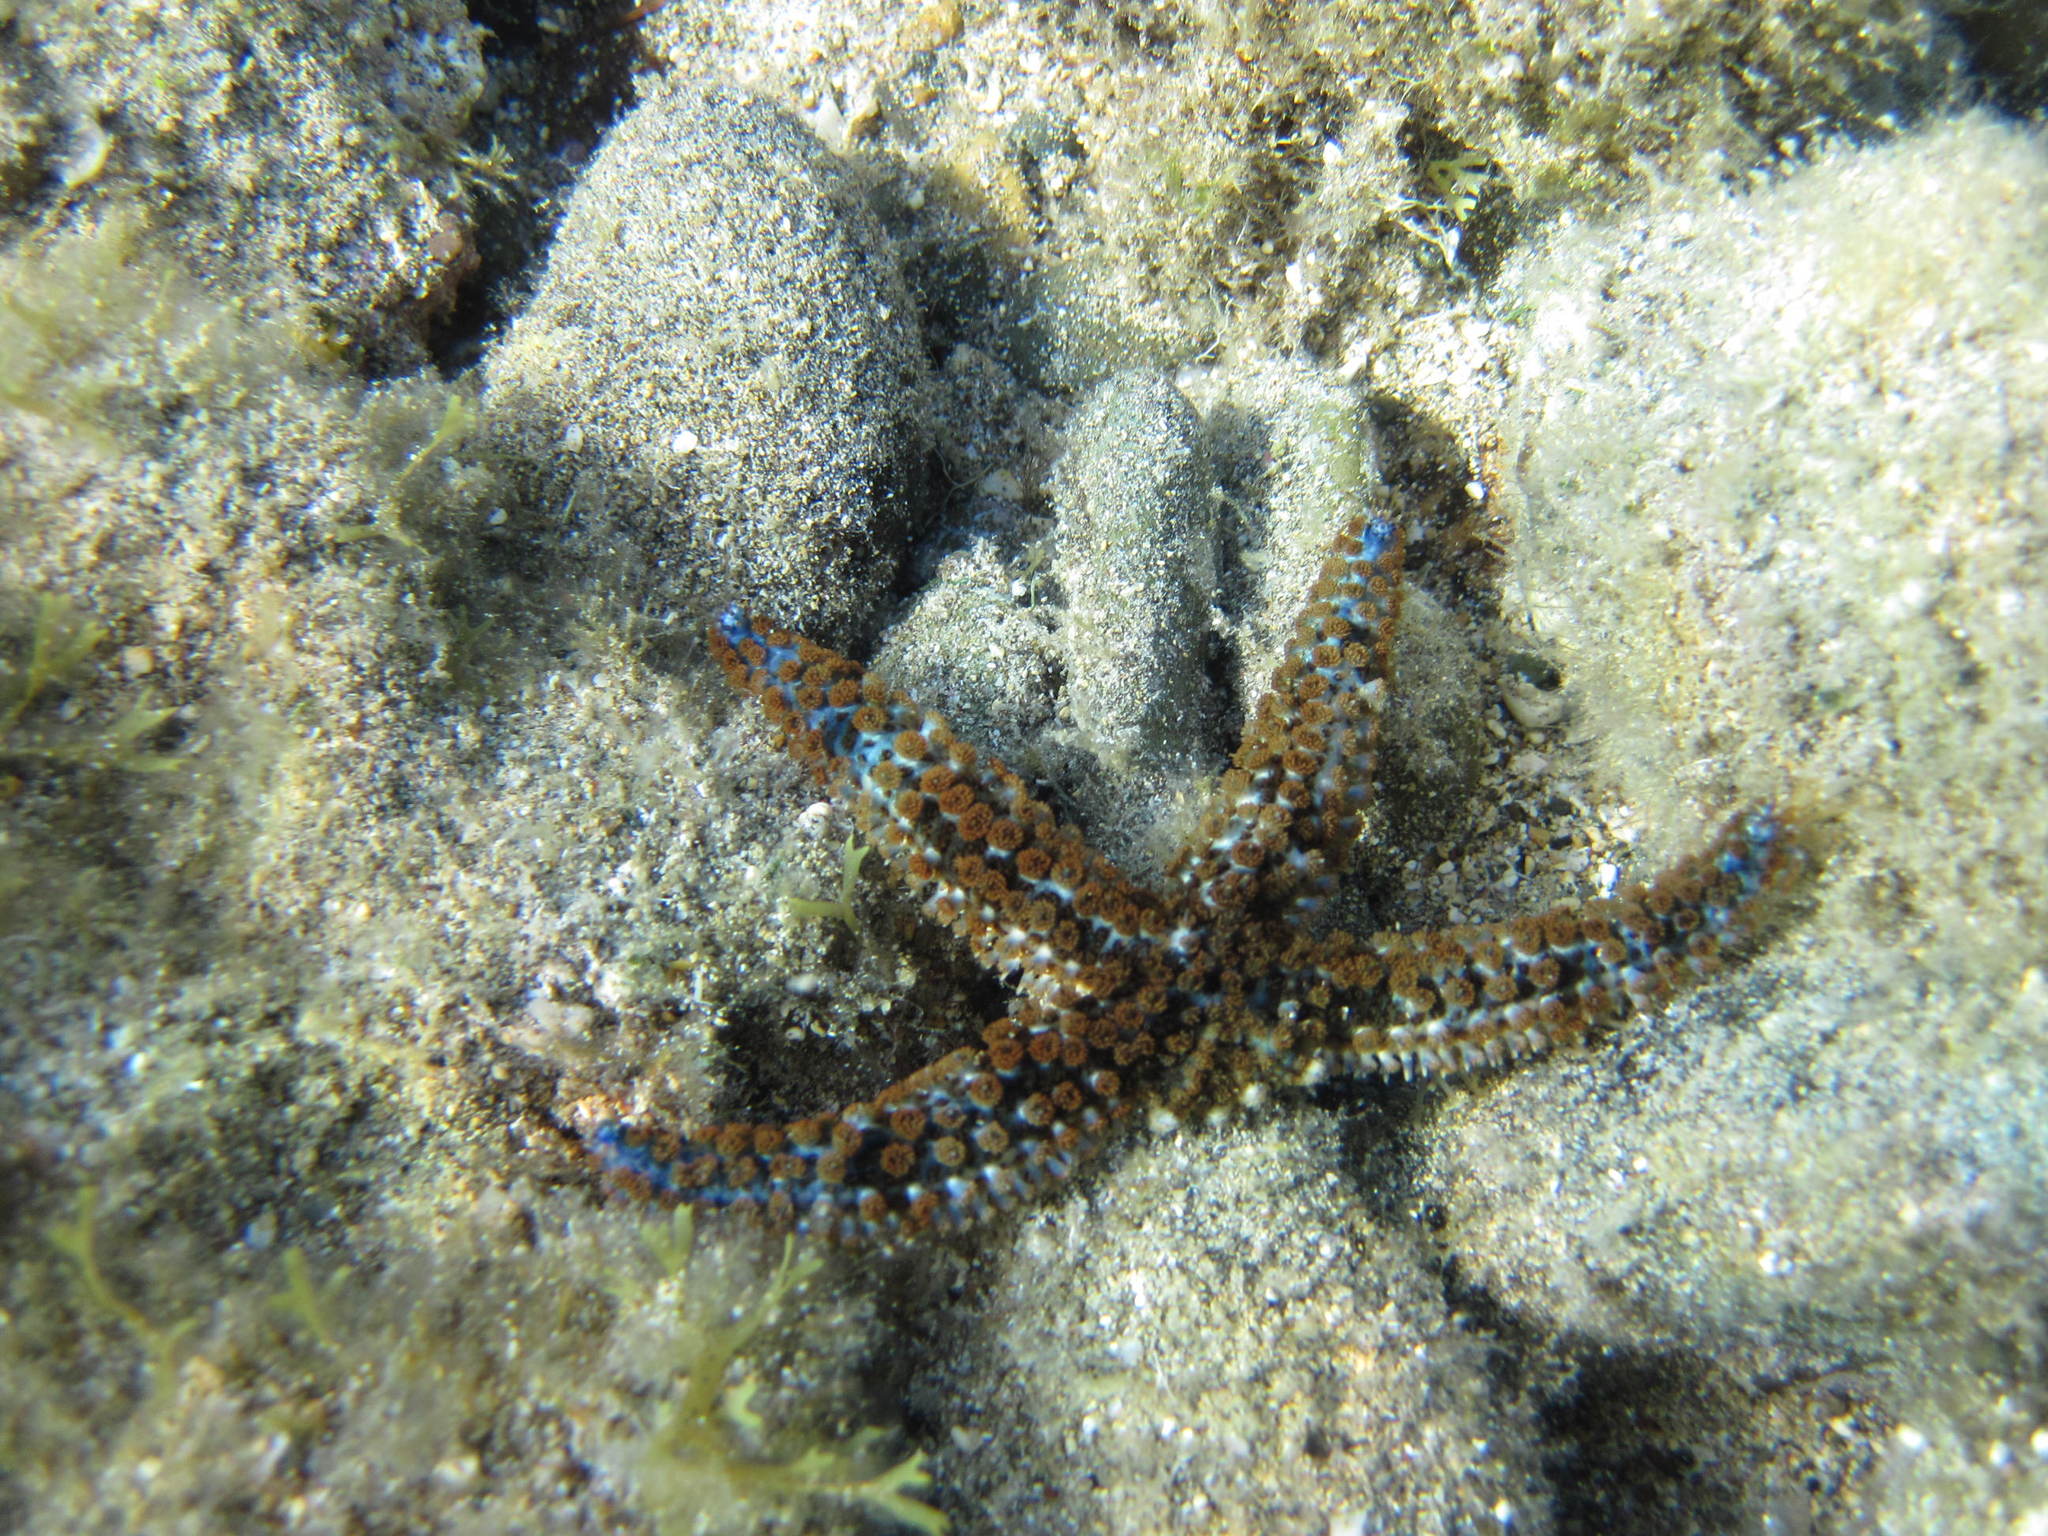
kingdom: Animalia
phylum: Echinodermata
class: Asteroidea
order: Forcipulatida
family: Asteriidae
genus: Coscinasterias
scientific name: Coscinasterias tenuispina
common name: Blue spiny starfish
